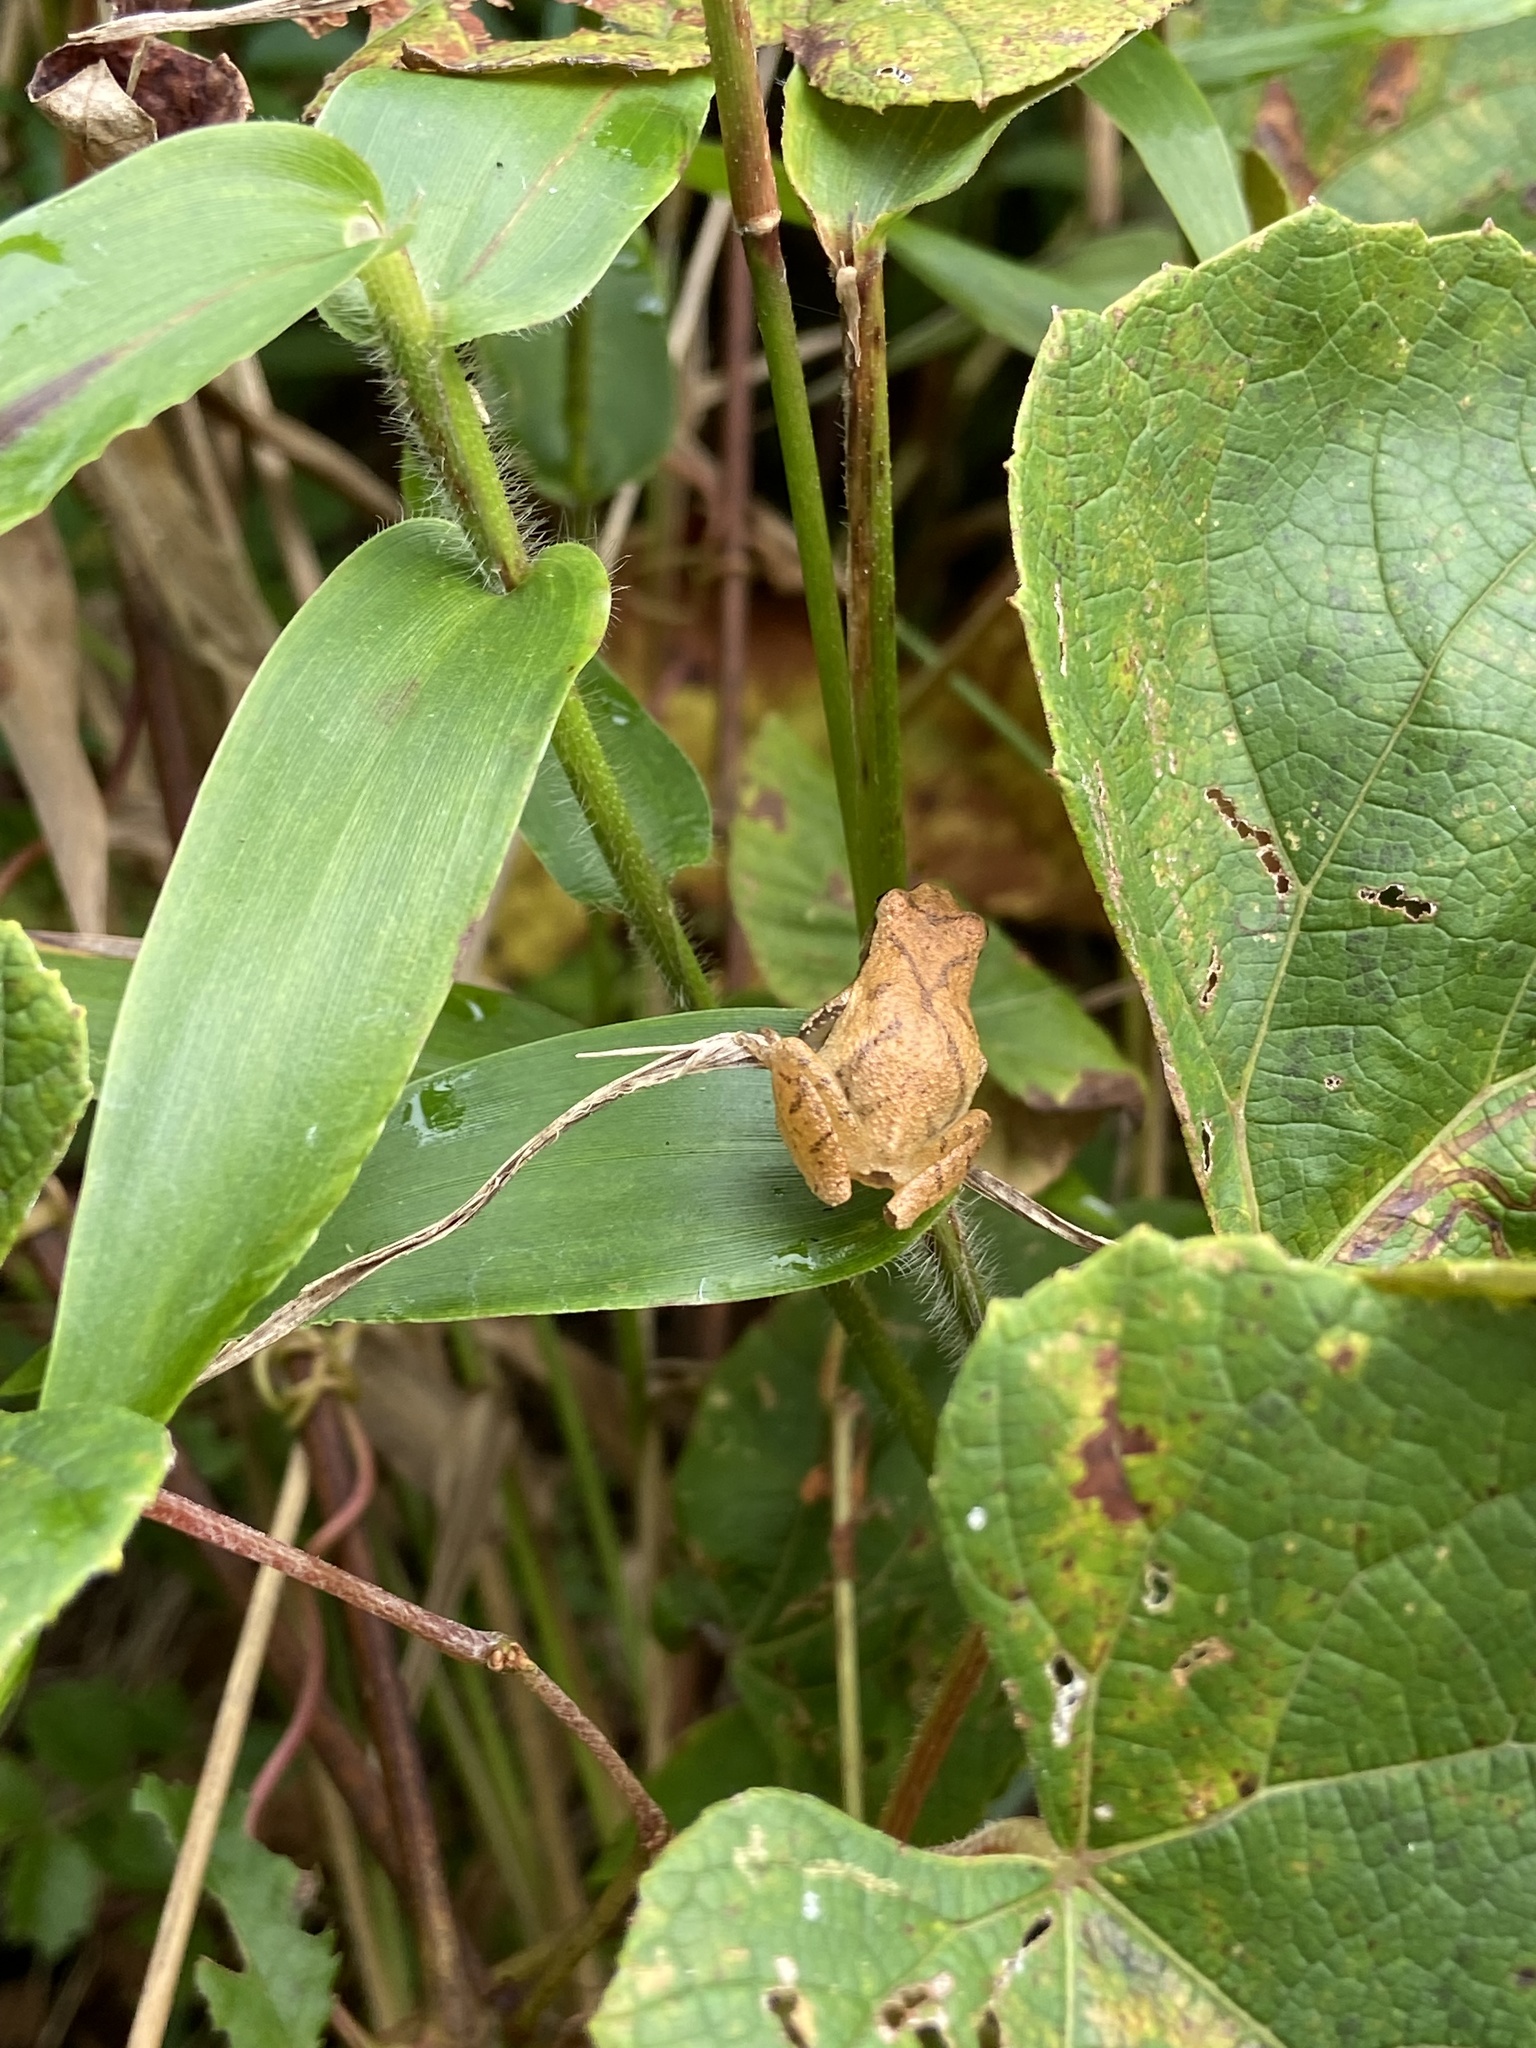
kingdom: Animalia
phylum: Chordata
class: Amphibia
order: Anura
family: Hylidae
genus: Pseudacris
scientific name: Pseudacris crucifer
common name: Spring peeper
